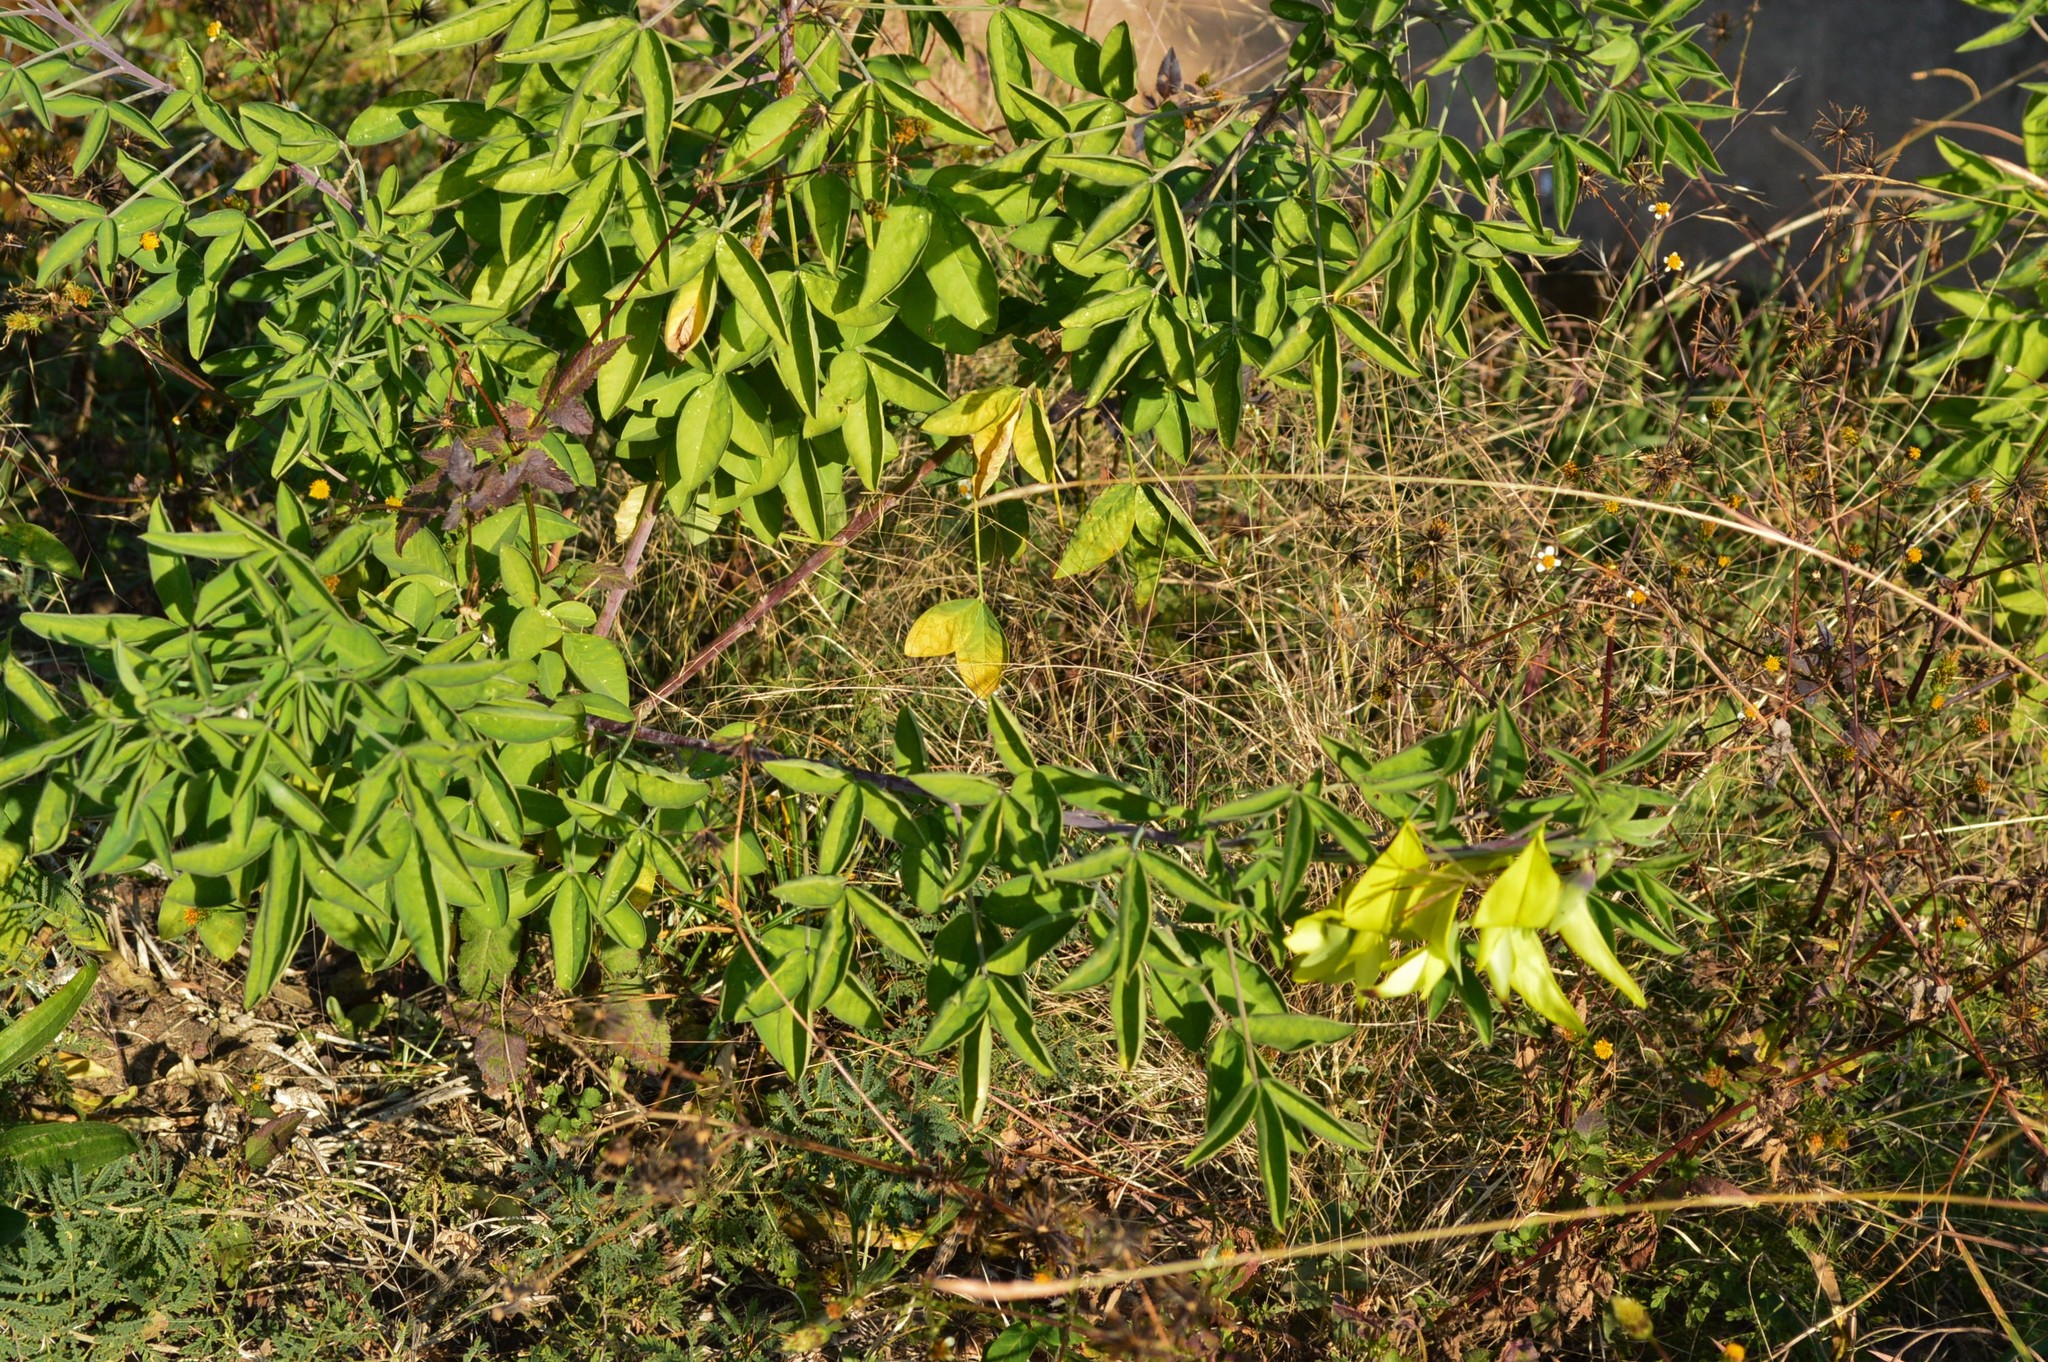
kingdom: Plantae
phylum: Tracheophyta
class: Magnoliopsida
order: Fabales
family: Fabaceae
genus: Crotalaria
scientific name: Crotalaria agatiflora
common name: Birdflower
